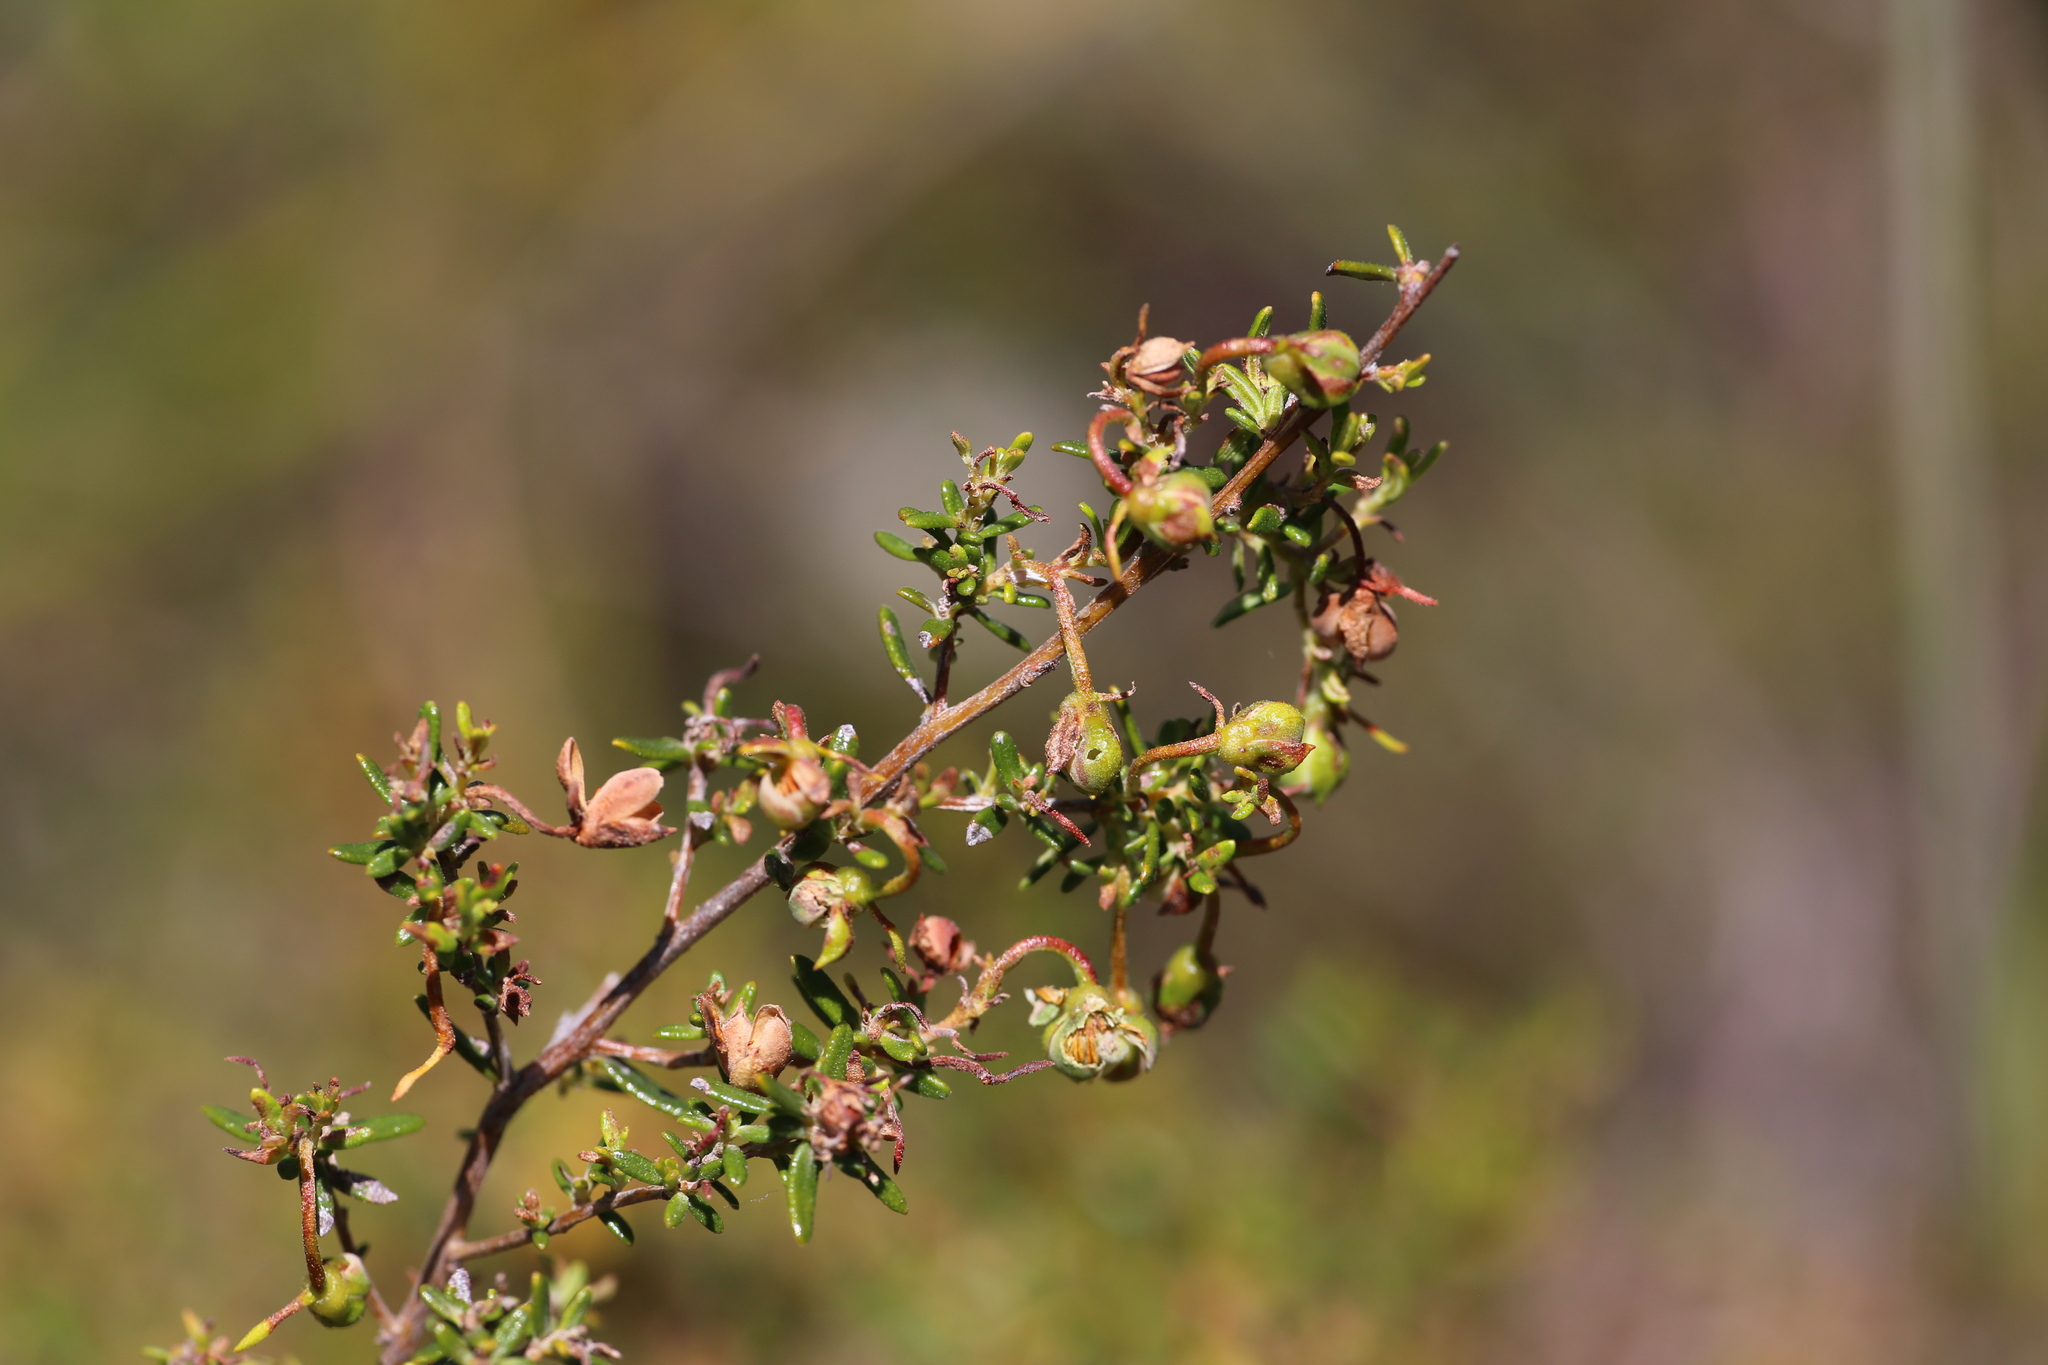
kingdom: Plantae
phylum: Tracheophyta
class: Magnoliopsida
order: Dilleniales
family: Dilleniaceae
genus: Hibbertia
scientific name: Hibbertia hypericoides
